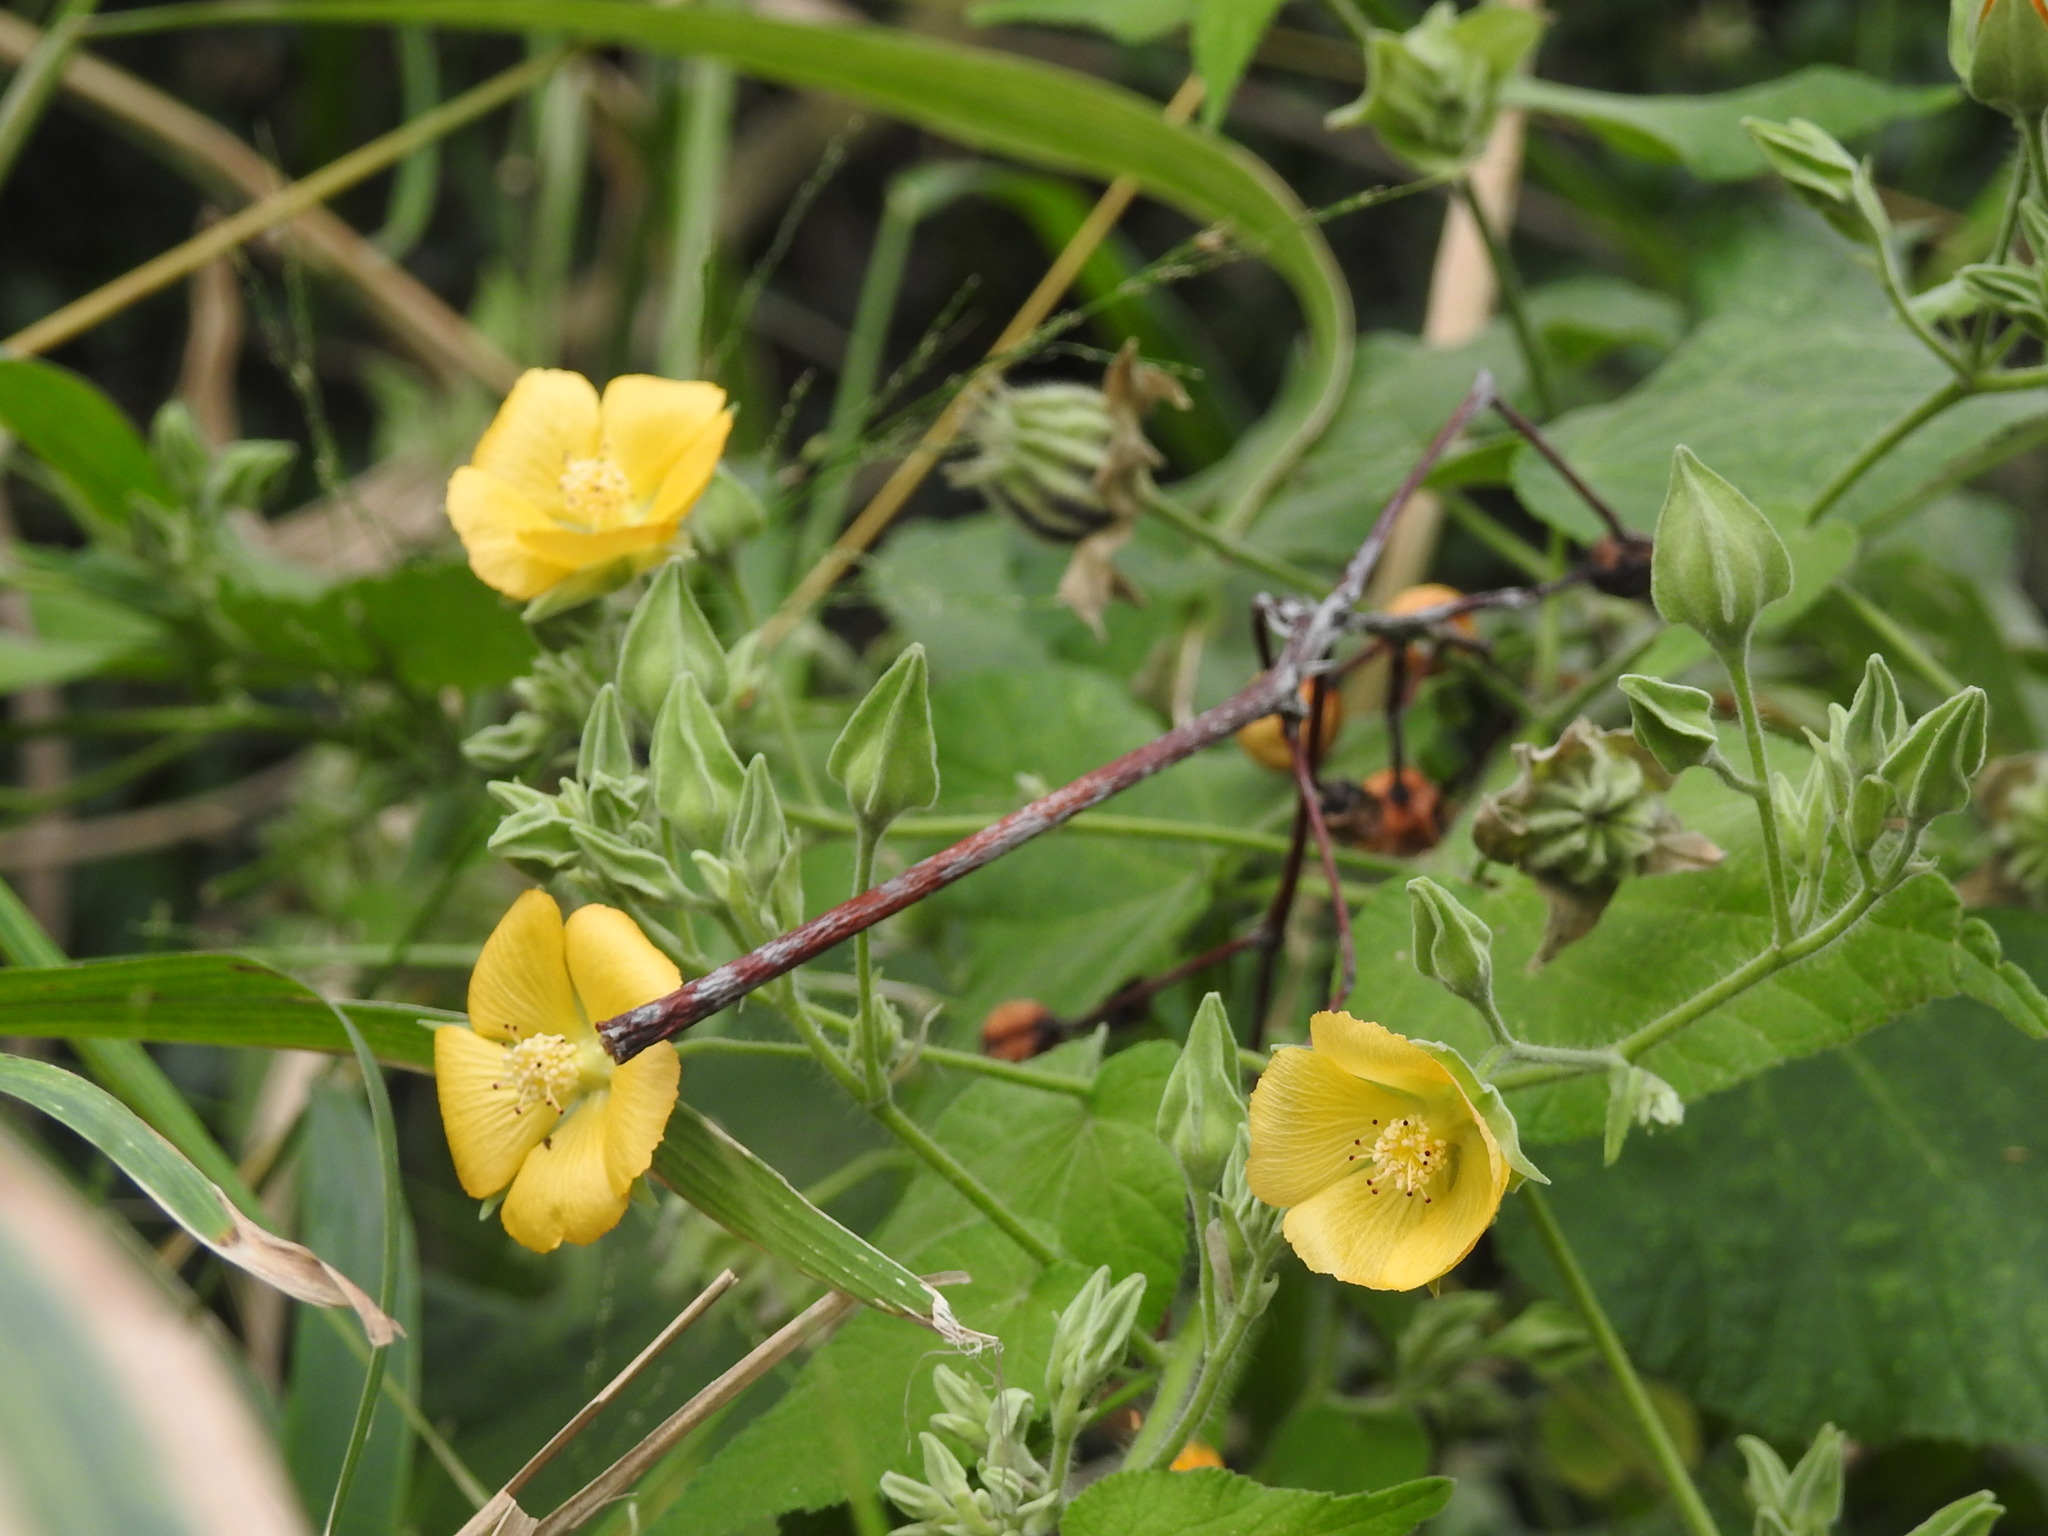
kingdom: Plantae
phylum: Tracheophyta
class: Magnoliopsida
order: Malvales
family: Malvaceae
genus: Abutilon
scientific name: Abutilon grandifolium
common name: Hairy abutilon
